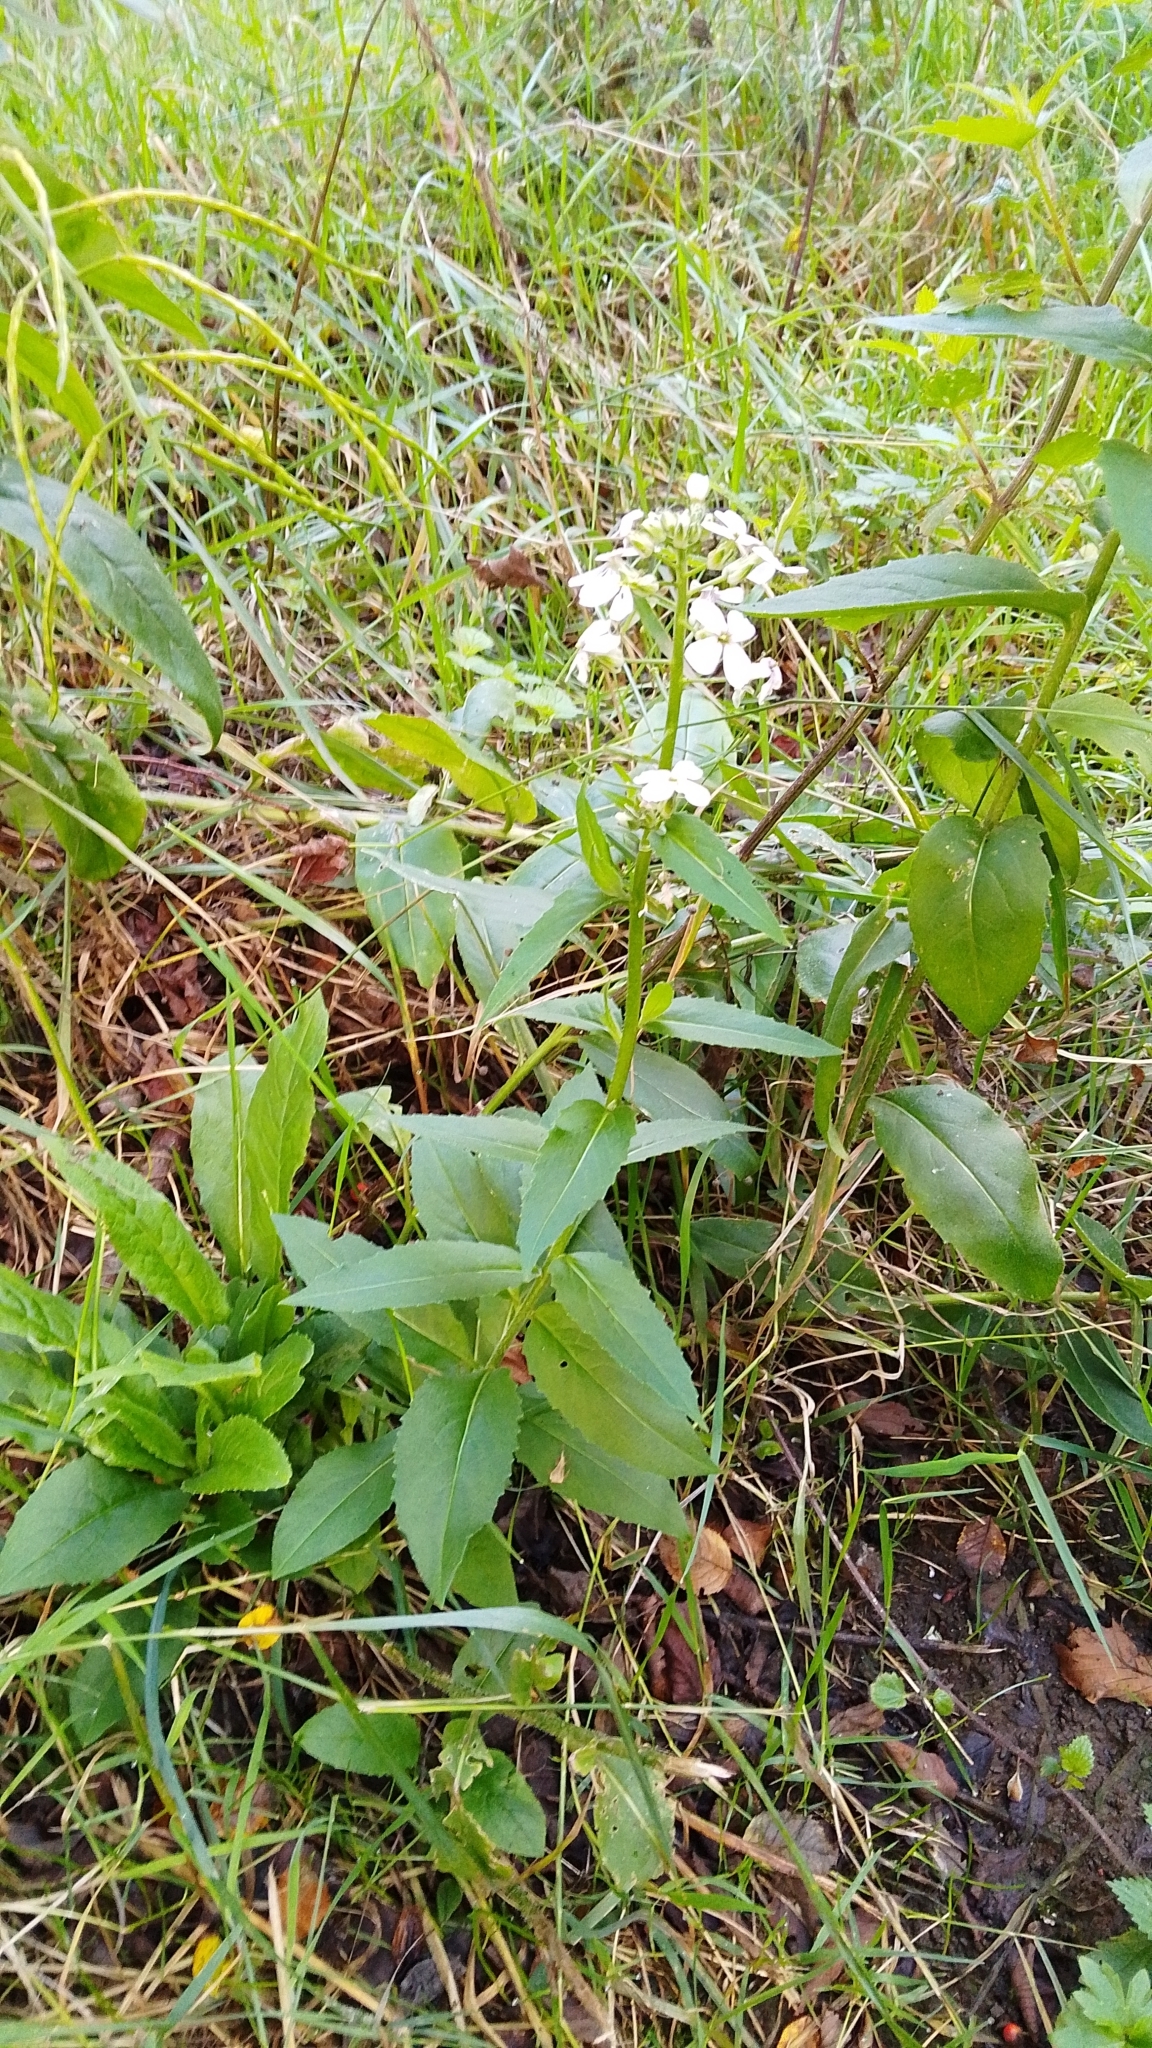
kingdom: Plantae
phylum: Tracheophyta
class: Magnoliopsida
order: Brassicales
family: Brassicaceae
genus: Hesperis
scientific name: Hesperis matronalis
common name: Dame's-violet
